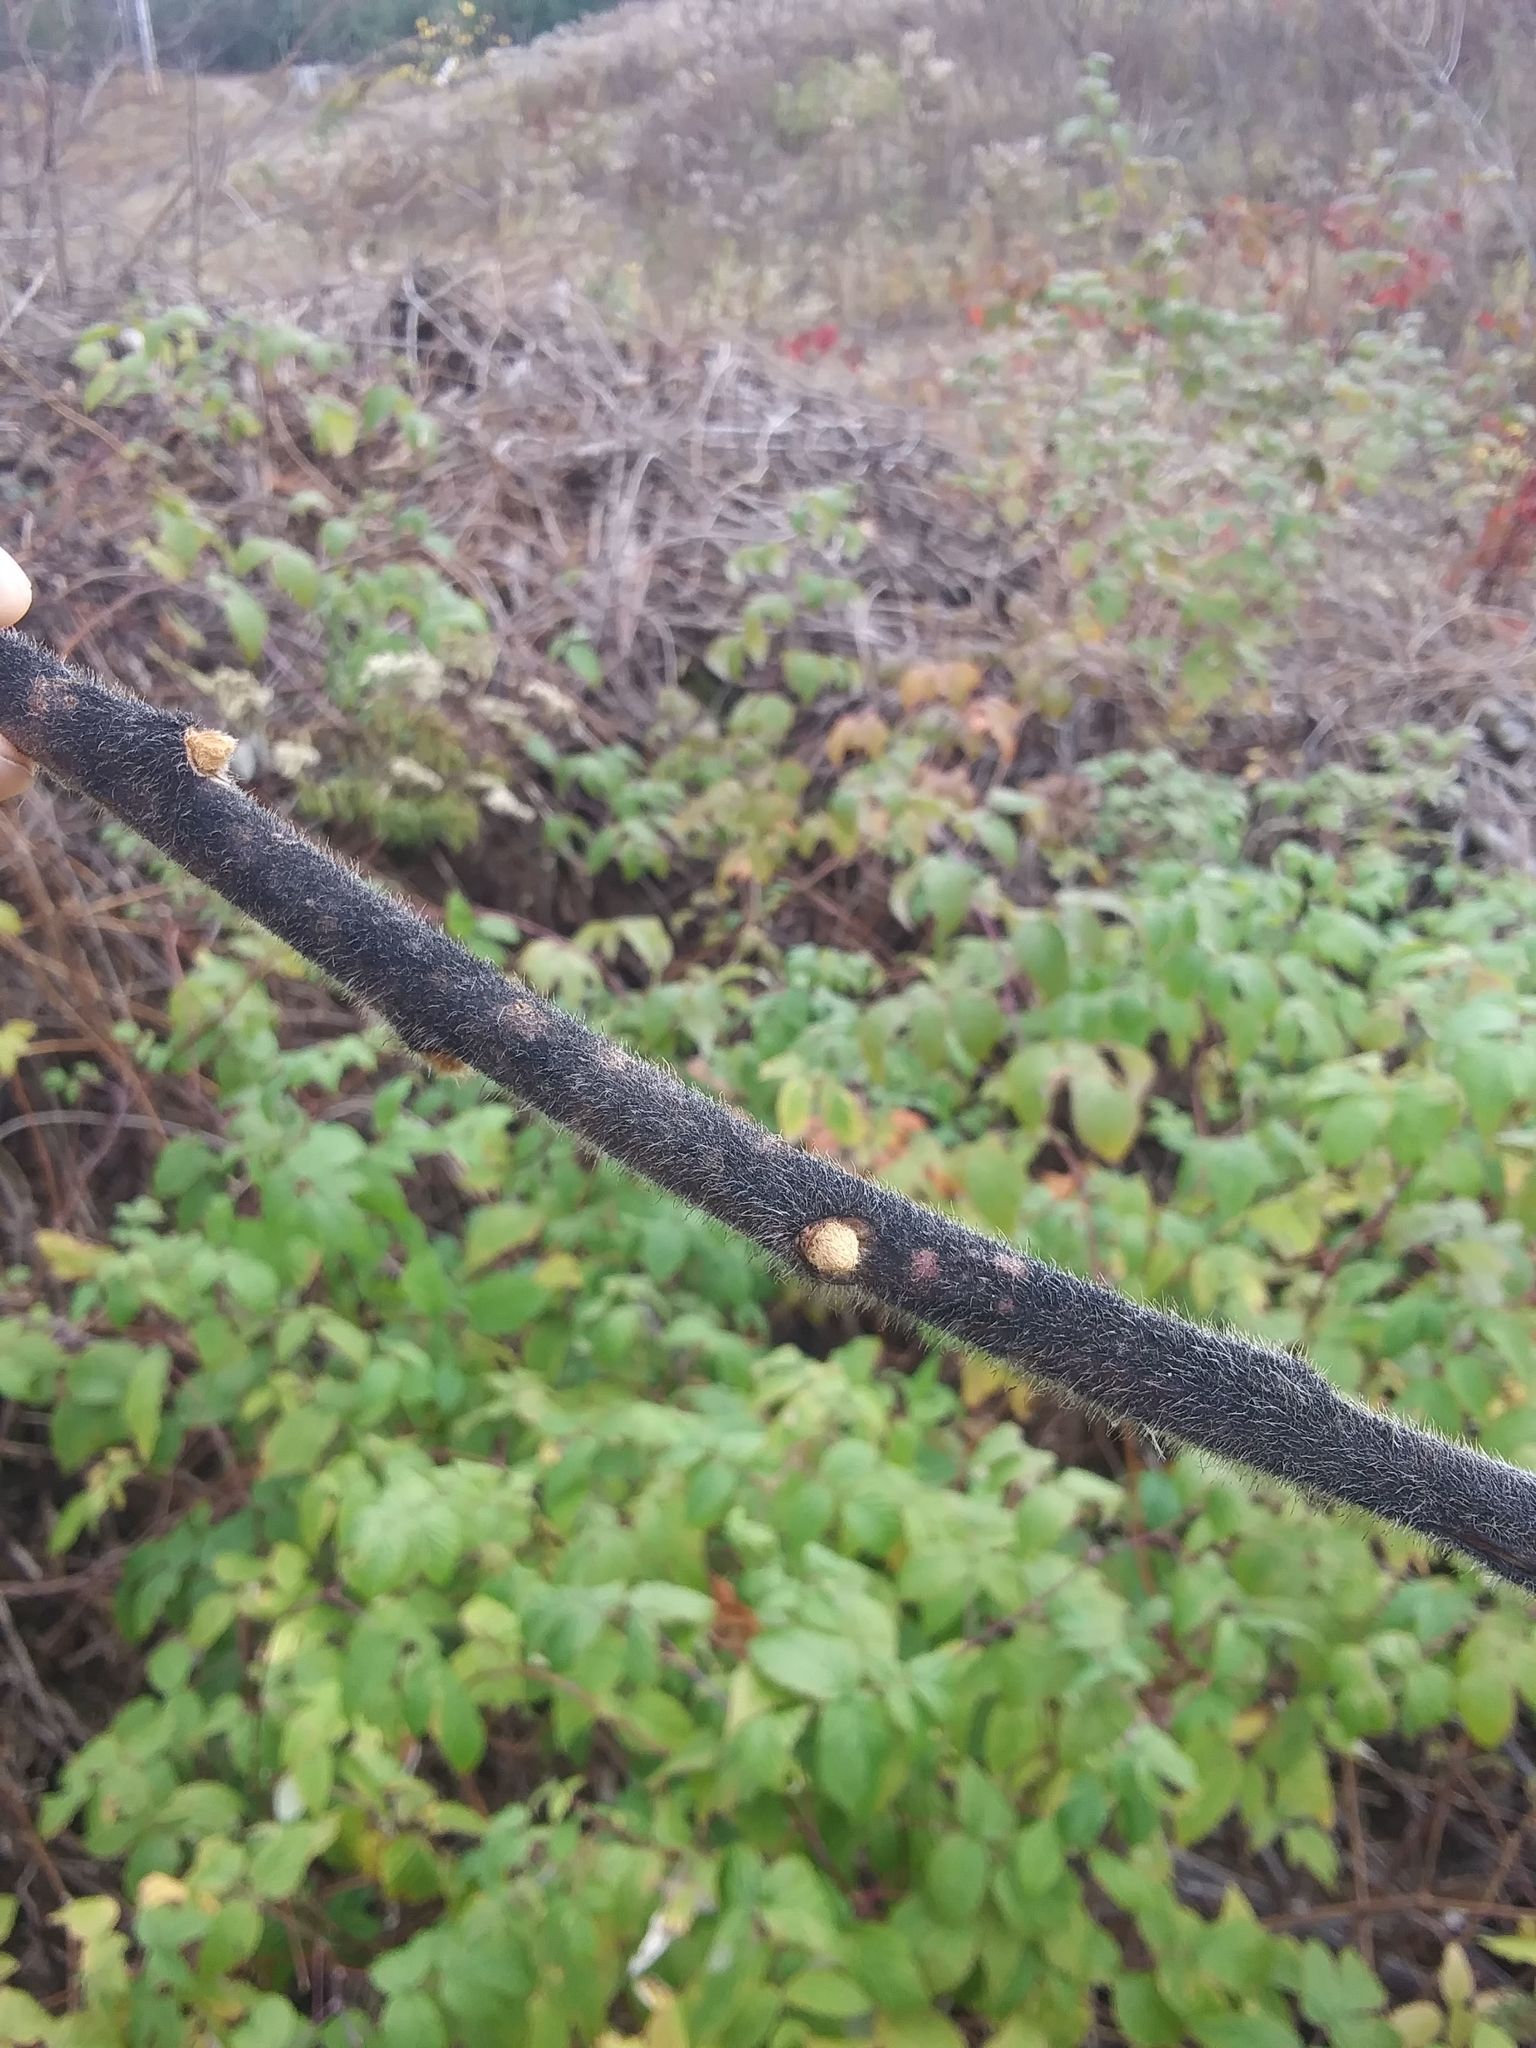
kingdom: Plantae
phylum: Tracheophyta
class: Magnoliopsida
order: Sapindales
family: Anacardiaceae
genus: Rhus
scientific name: Rhus typhina
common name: Staghorn sumac
